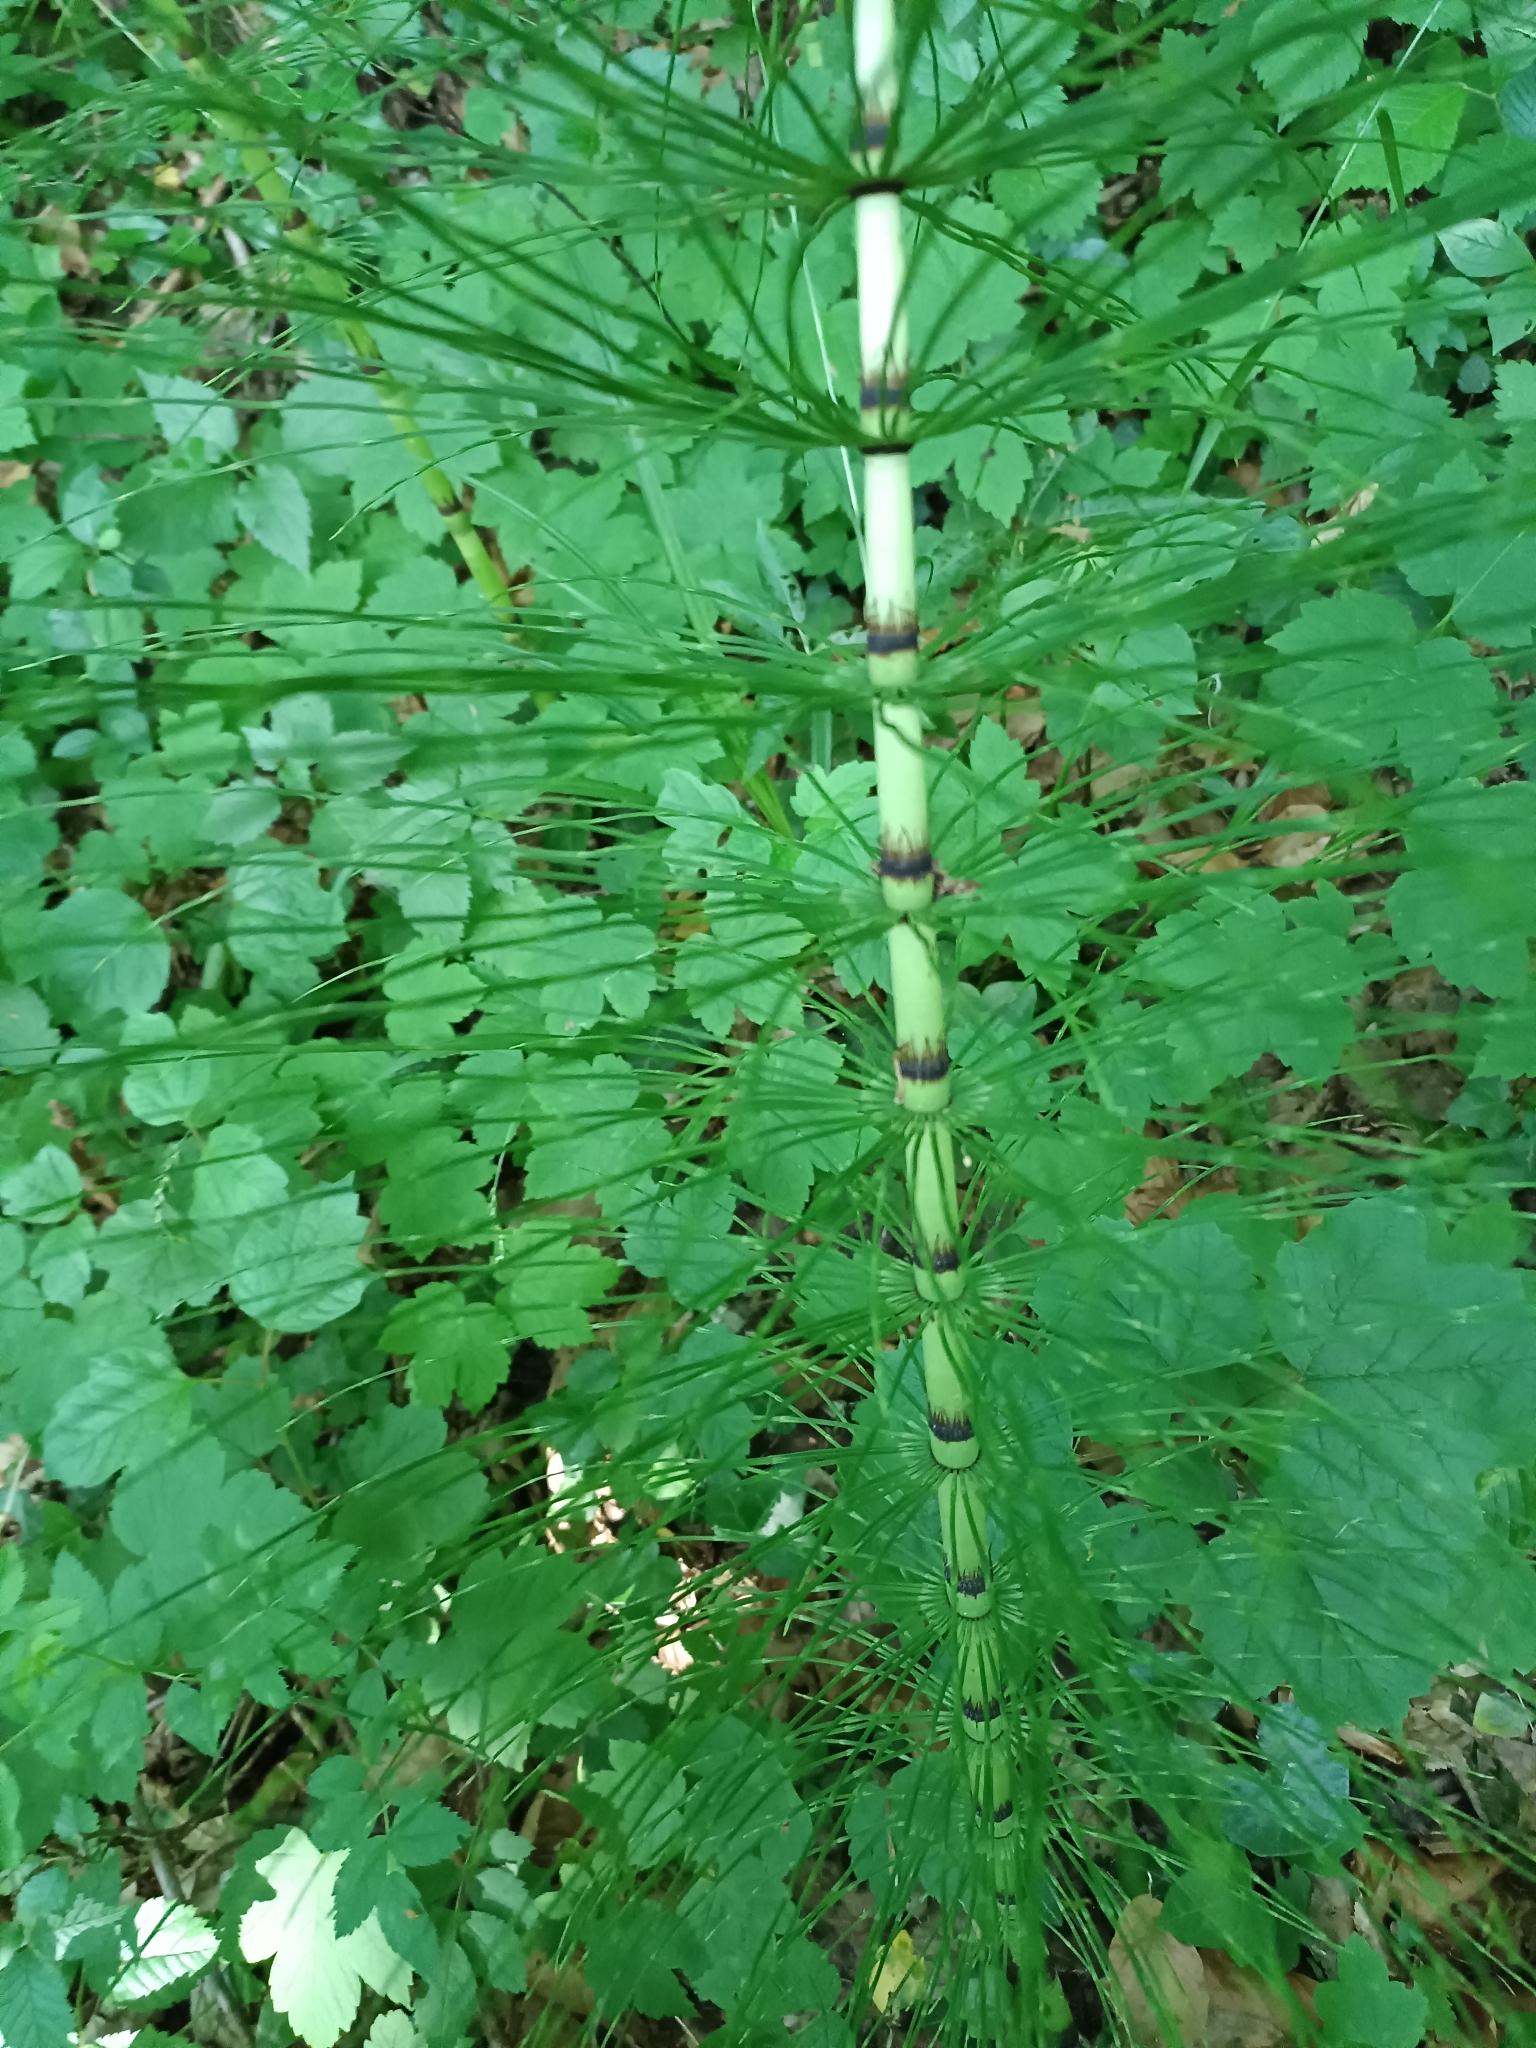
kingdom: Plantae
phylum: Tracheophyta
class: Polypodiopsida
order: Equisetales
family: Equisetaceae
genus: Equisetum
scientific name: Equisetum telmateia
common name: Great horsetail
